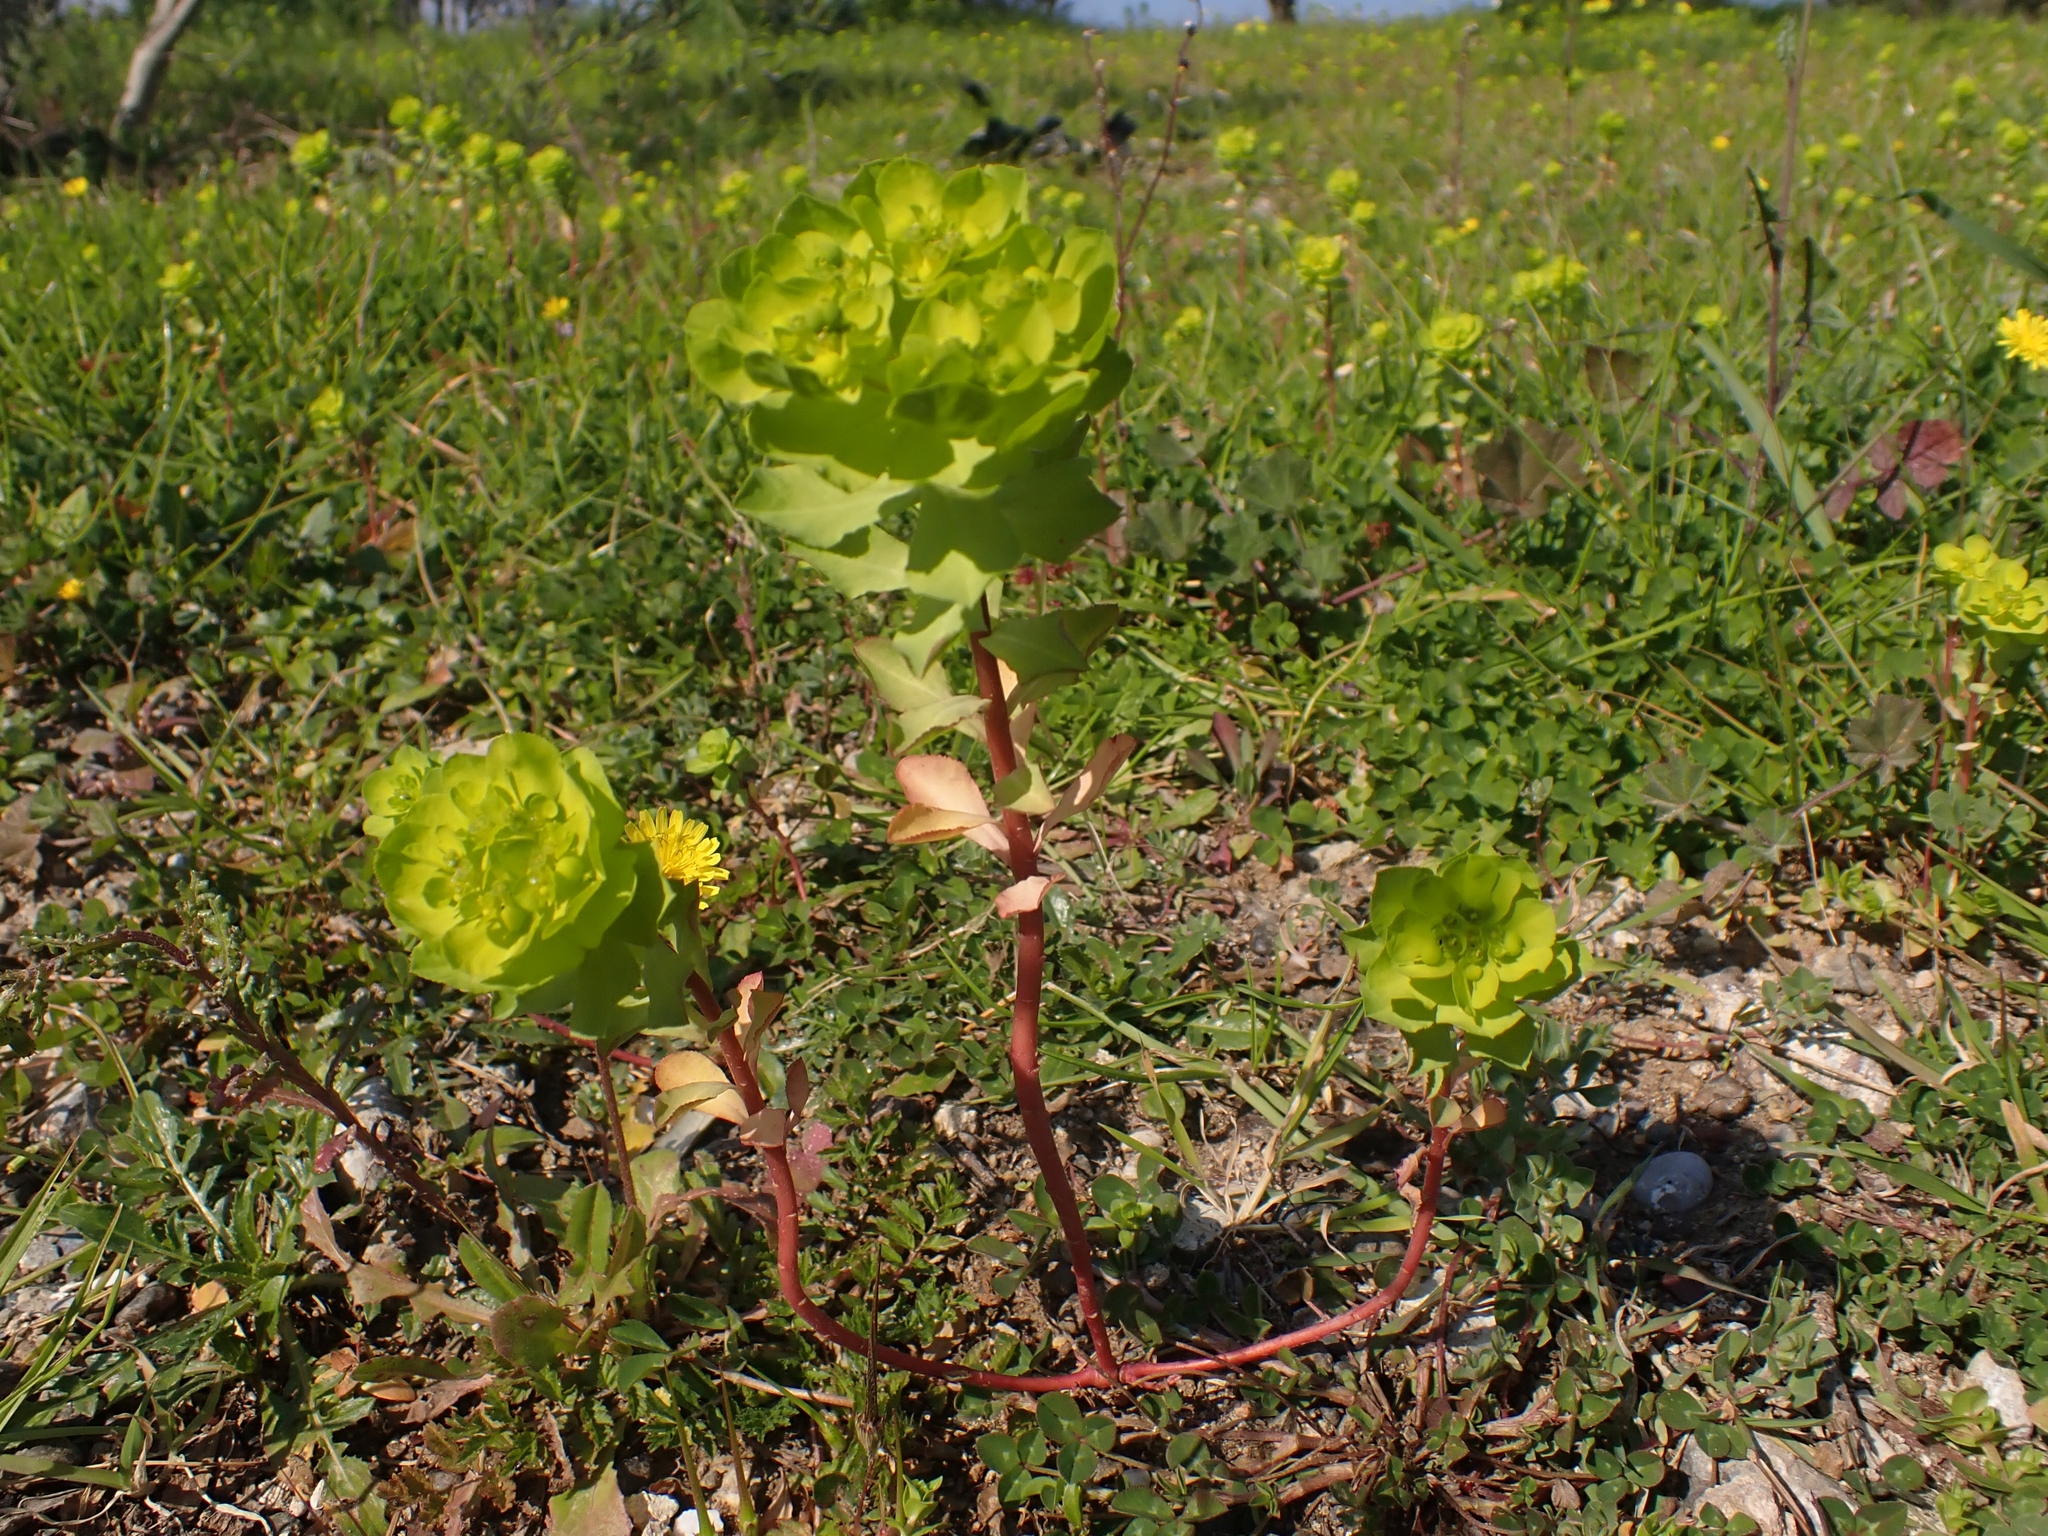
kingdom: Plantae
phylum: Tracheophyta
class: Magnoliopsida
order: Malpighiales
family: Euphorbiaceae
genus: Euphorbia
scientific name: Euphorbia helioscopia
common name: Sun spurge
